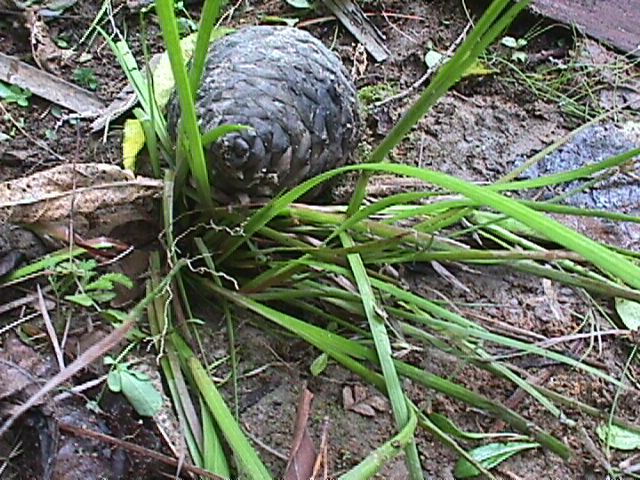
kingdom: Plantae
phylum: Tracheophyta
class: Liliopsida
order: Poales
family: Poaceae
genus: Glyceria
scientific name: Glyceria maxima
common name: Reed mannagrass
